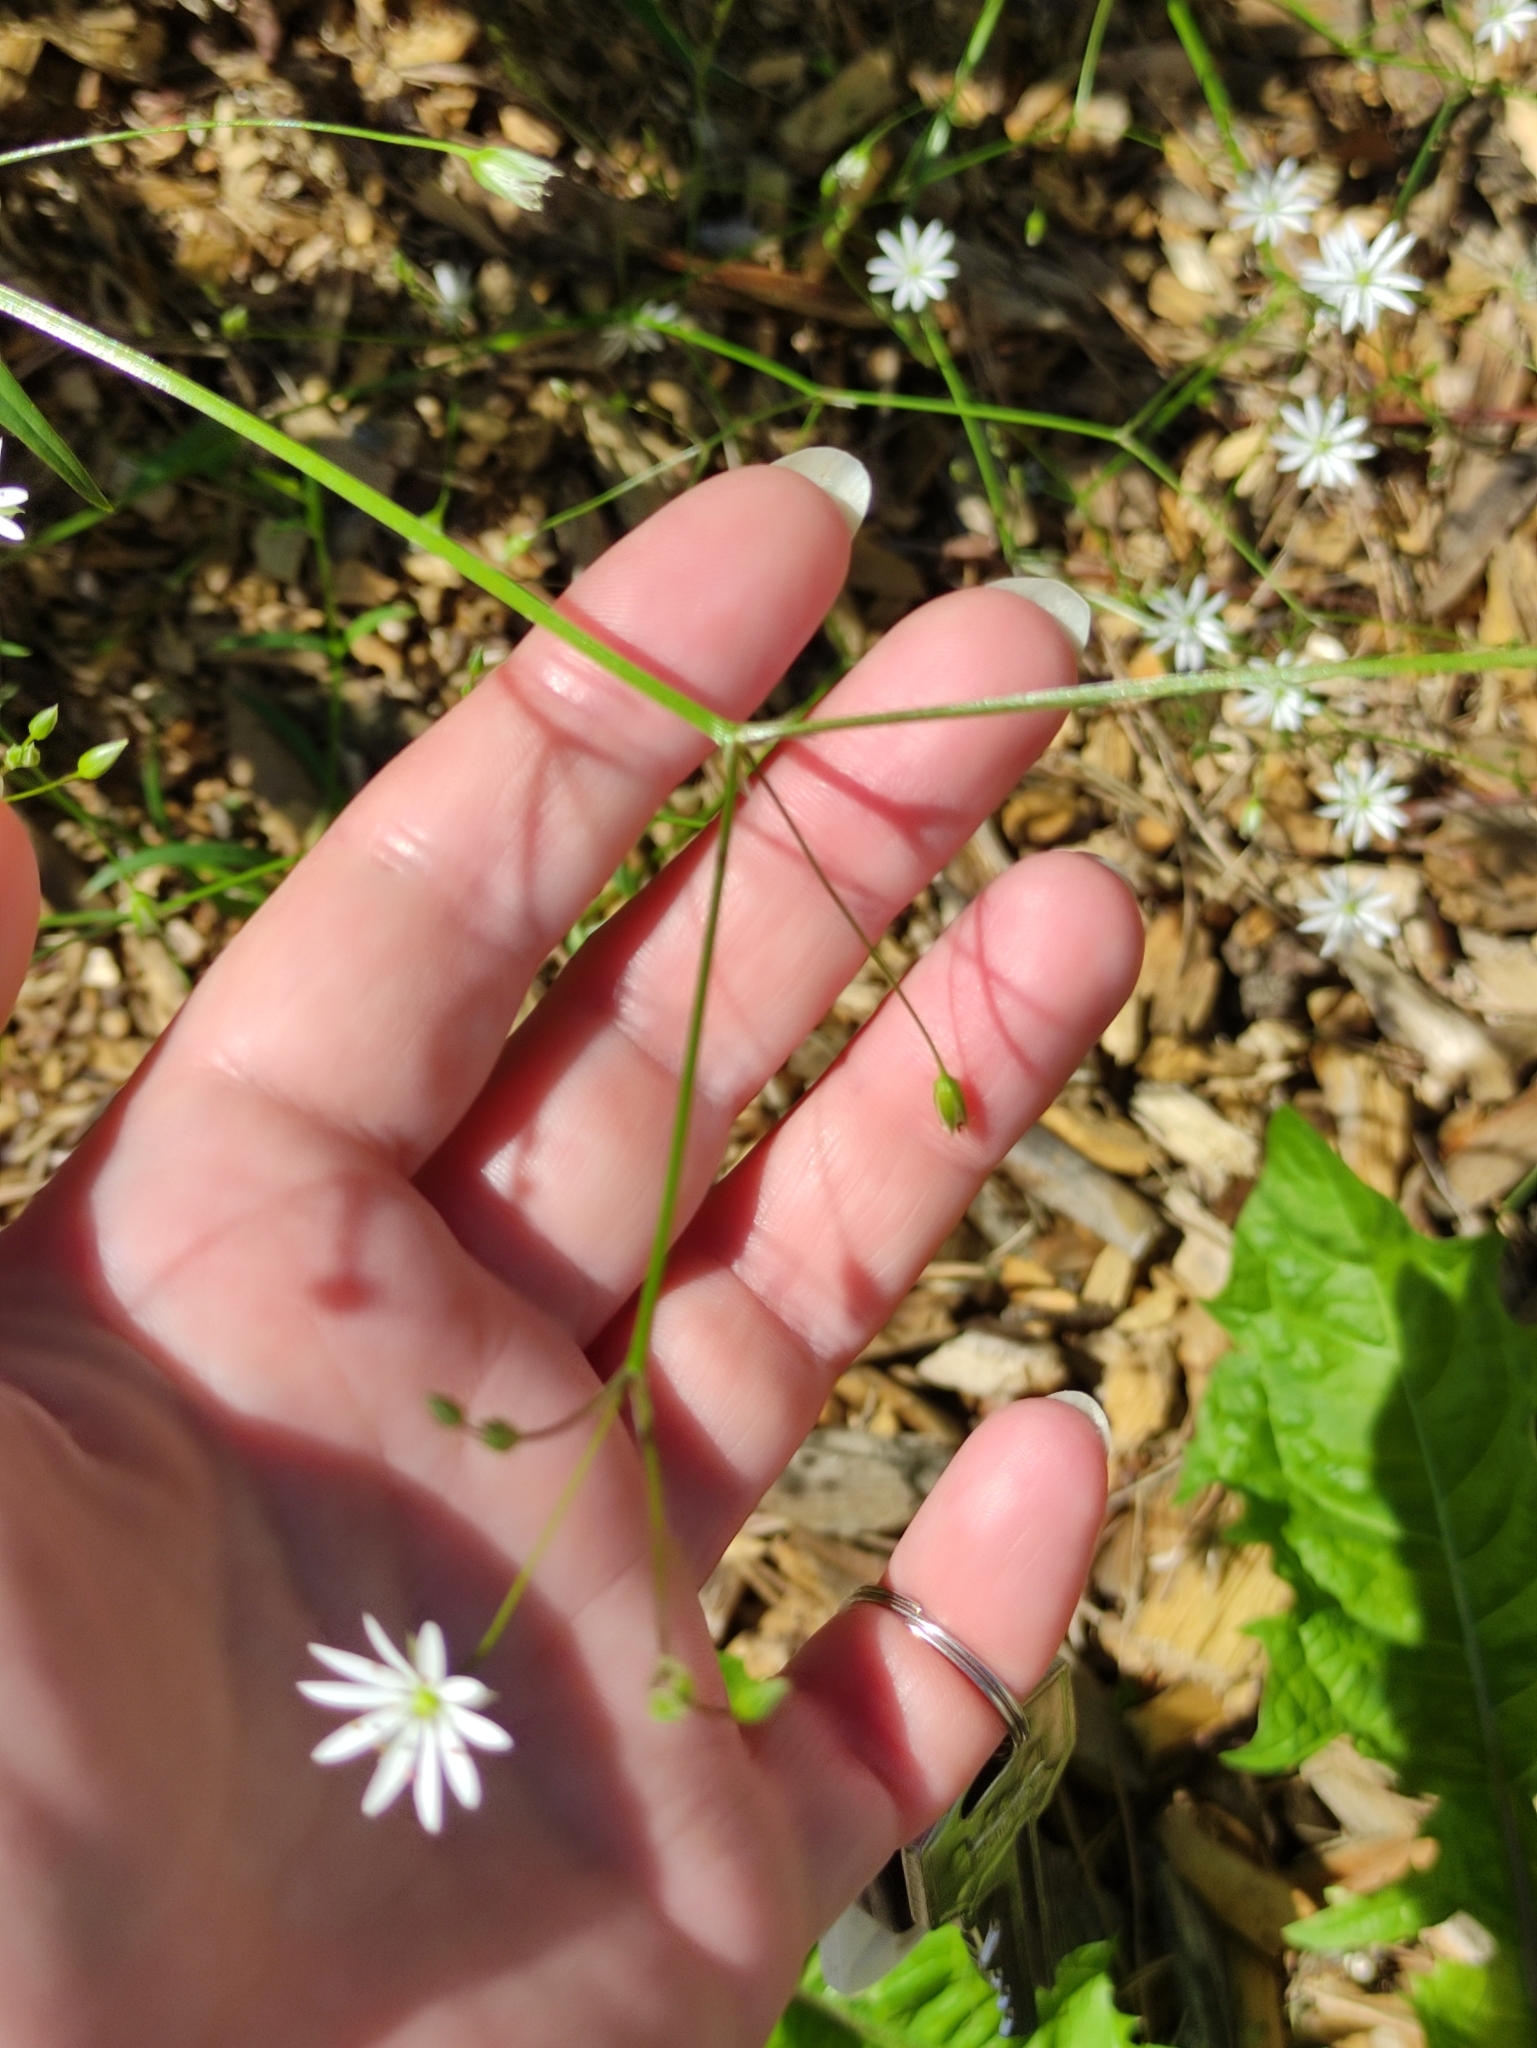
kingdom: Plantae
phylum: Tracheophyta
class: Magnoliopsida
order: Caryophyllales
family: Caryophyllaceae
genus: Stellaria
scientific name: Stellaria graminea
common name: Grass-like starwort
